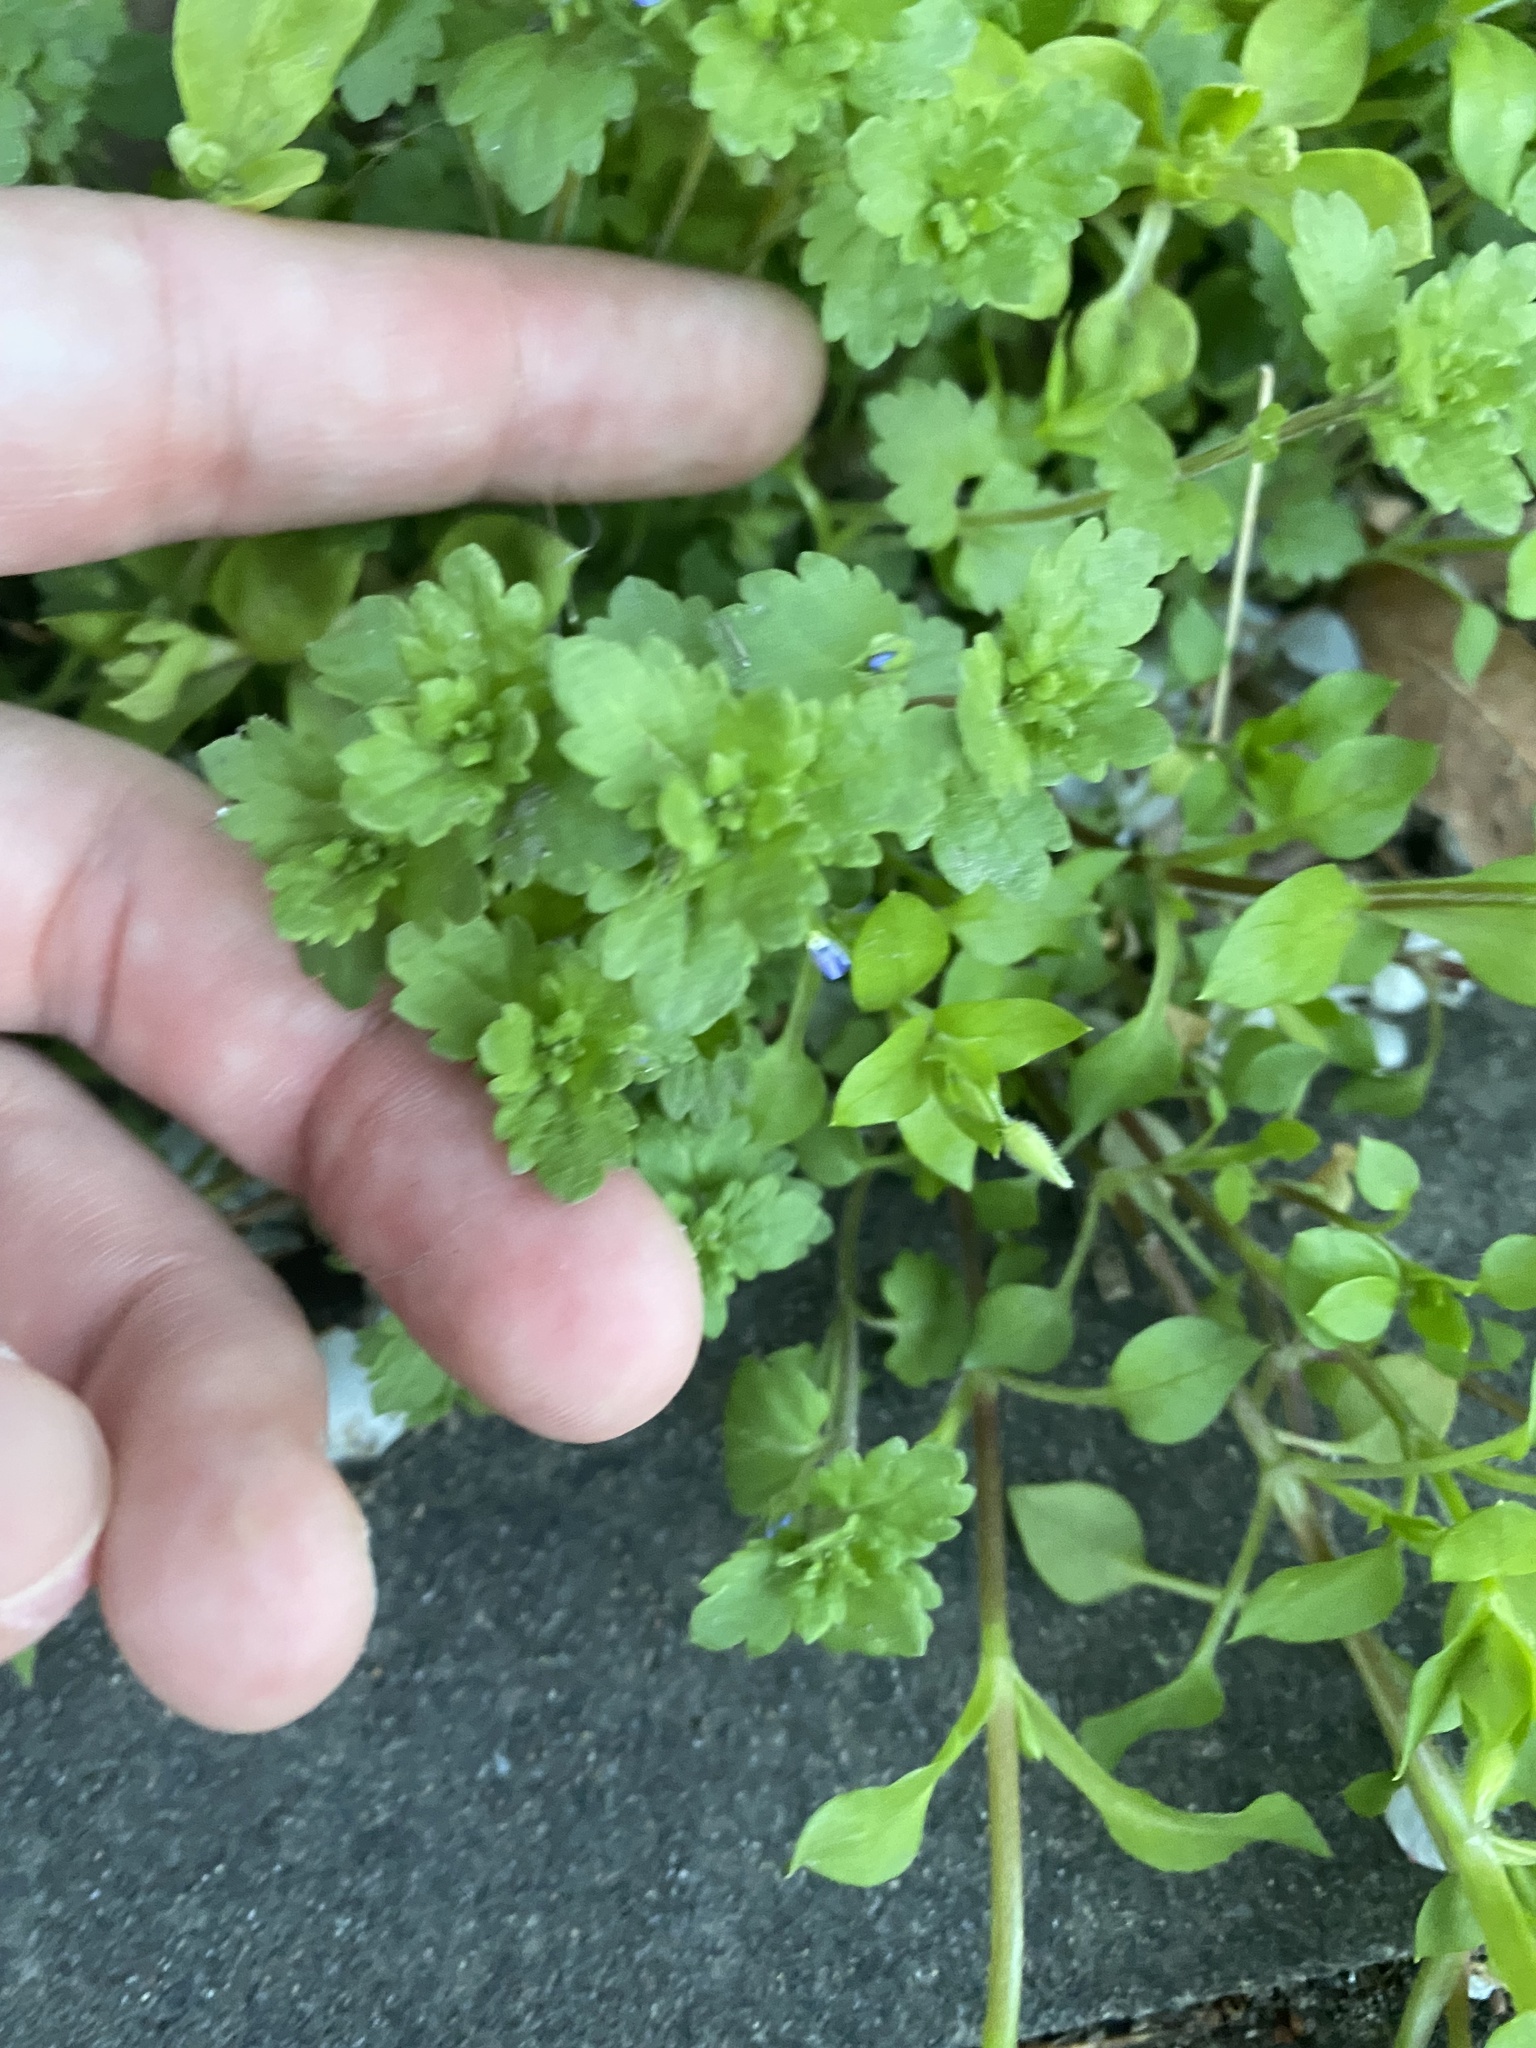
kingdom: Plantae
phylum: Tracheophyta
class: Magnoliopsida
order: Lamiales
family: Plantaginaceae
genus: Veronica
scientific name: Veronica polita
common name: Grey field-speedwell
